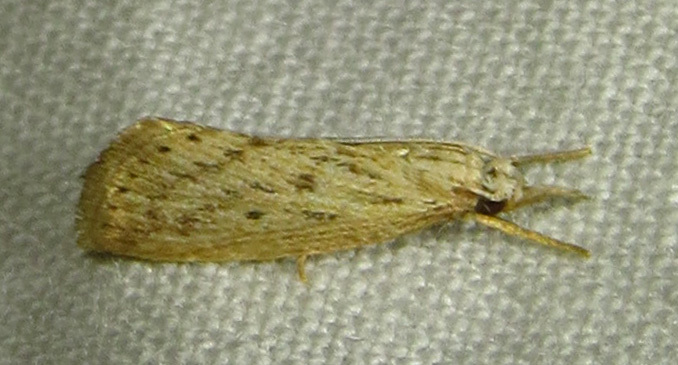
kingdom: Animalia
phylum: Arthropoda
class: Insecta
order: Lepidoptera
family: Crambidae
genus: Diatraea
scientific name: Diatraea lisetta
